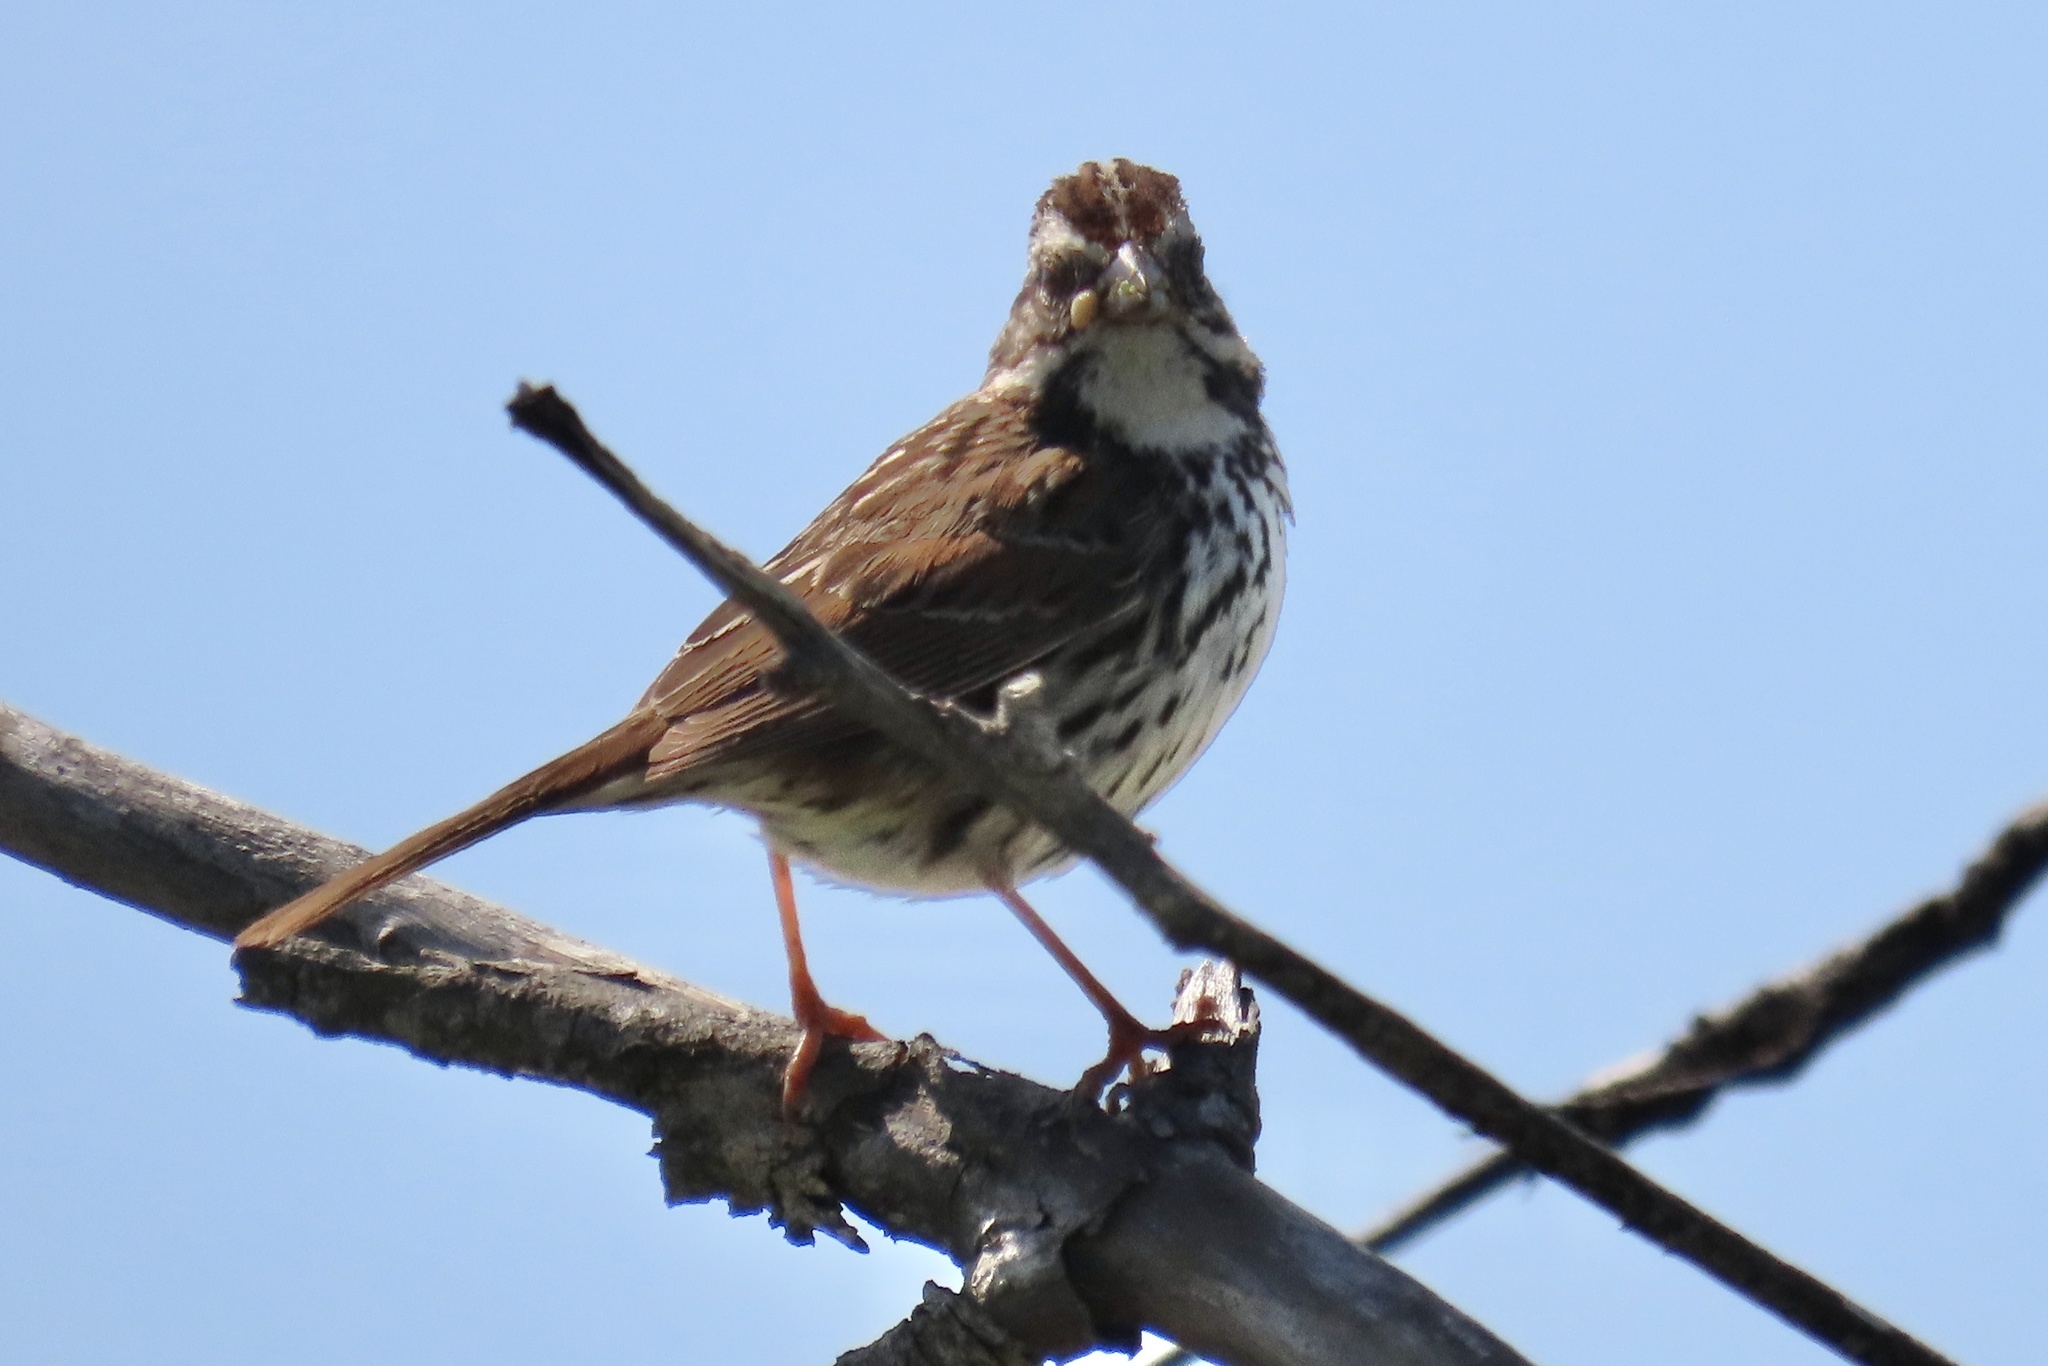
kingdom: Animalia
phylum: Chordata
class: Aves
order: Passeriformes
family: Passerellidae
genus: Melospiza
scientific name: Melospiza melodia
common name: Song sparrow
